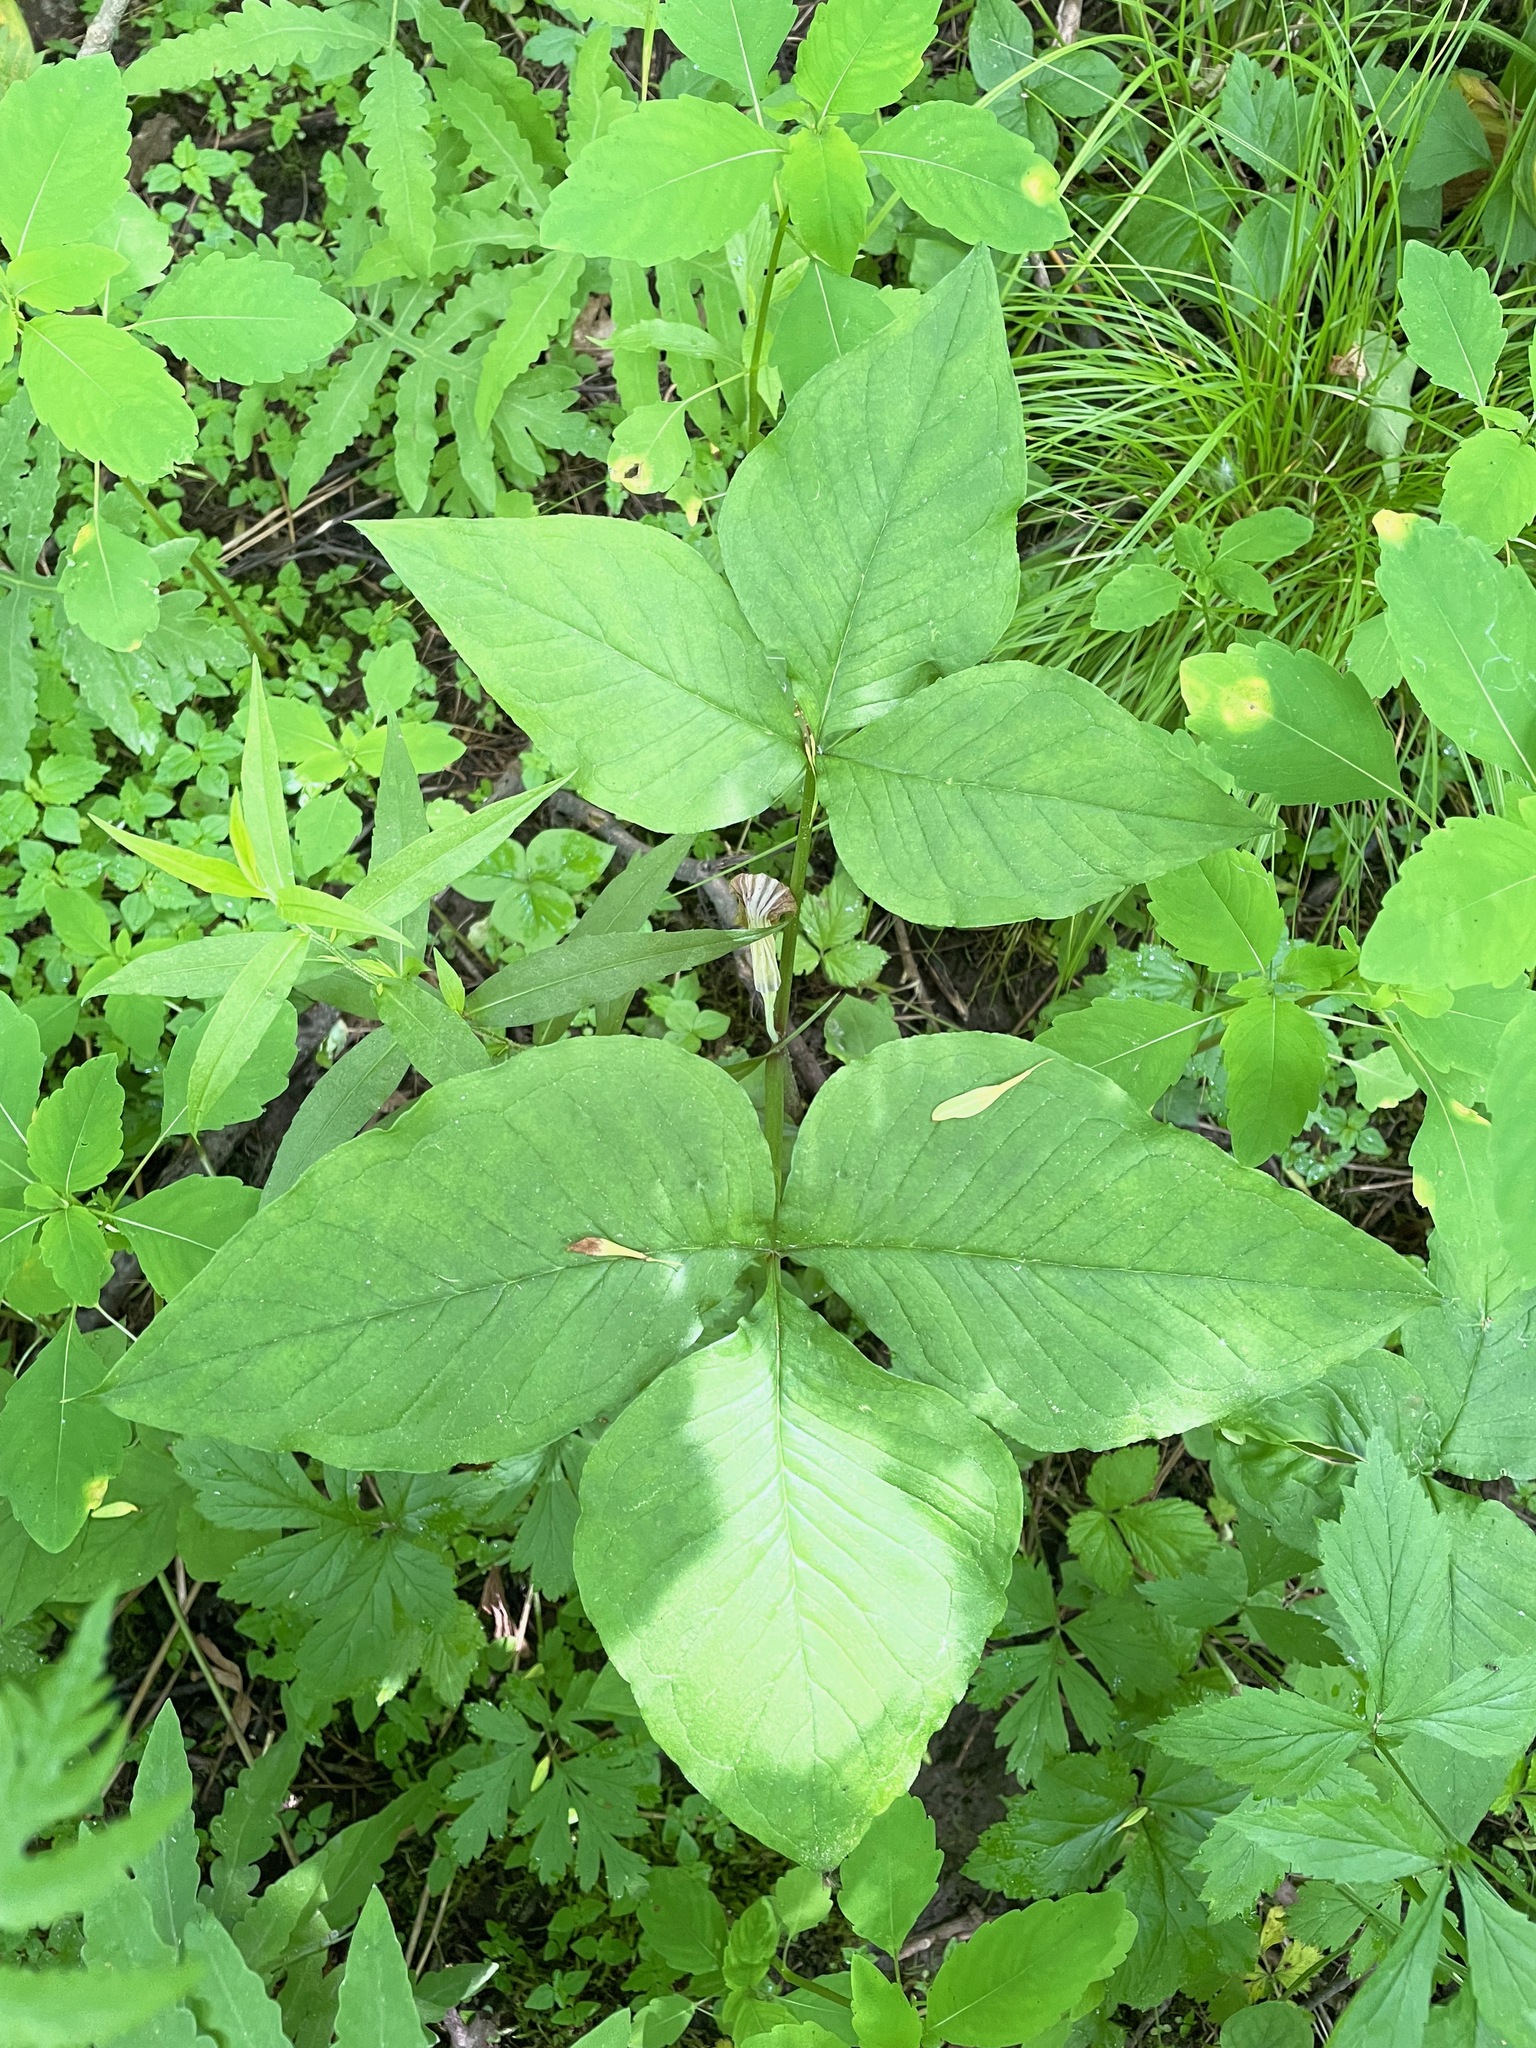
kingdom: Plantae
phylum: Tracheophyta
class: Liliopsida
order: Alismatales
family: Araceae
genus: Arisaema
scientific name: Arisaema stewardsonii
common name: Swamp jack-in-the-pulpit
